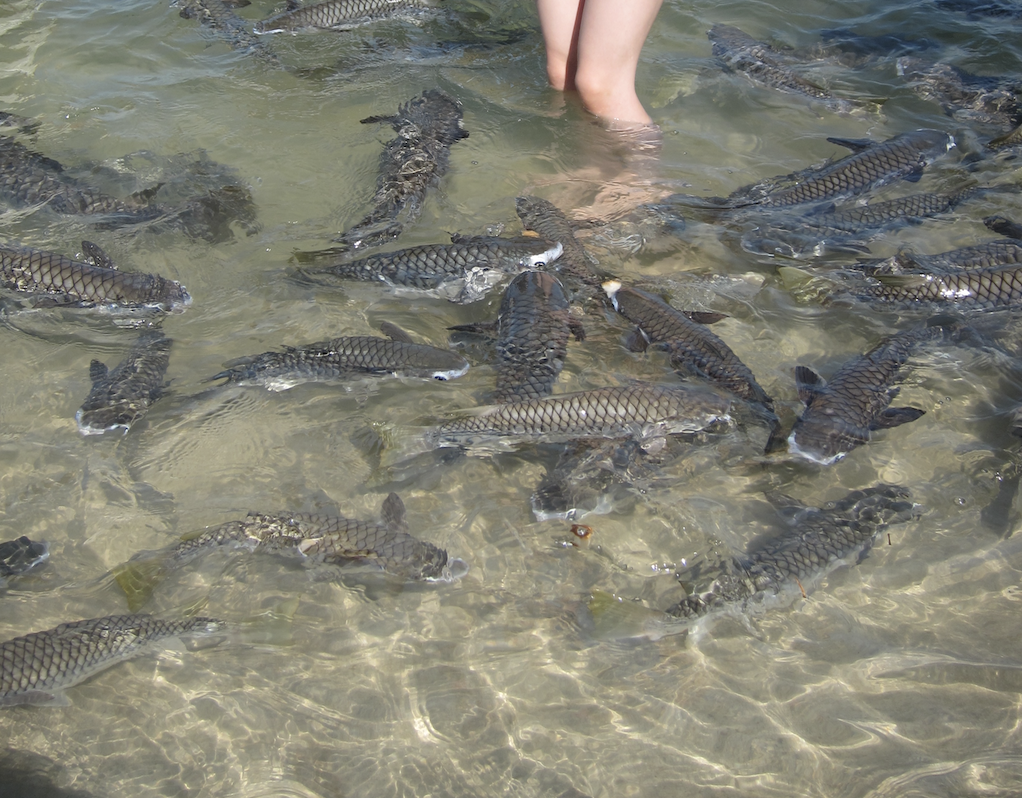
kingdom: Animalia
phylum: Chordata
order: Mugiliformes
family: Mugilidae
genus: Ellochelon
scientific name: Ellochelon vaigiensis
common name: Squaretail mullet
